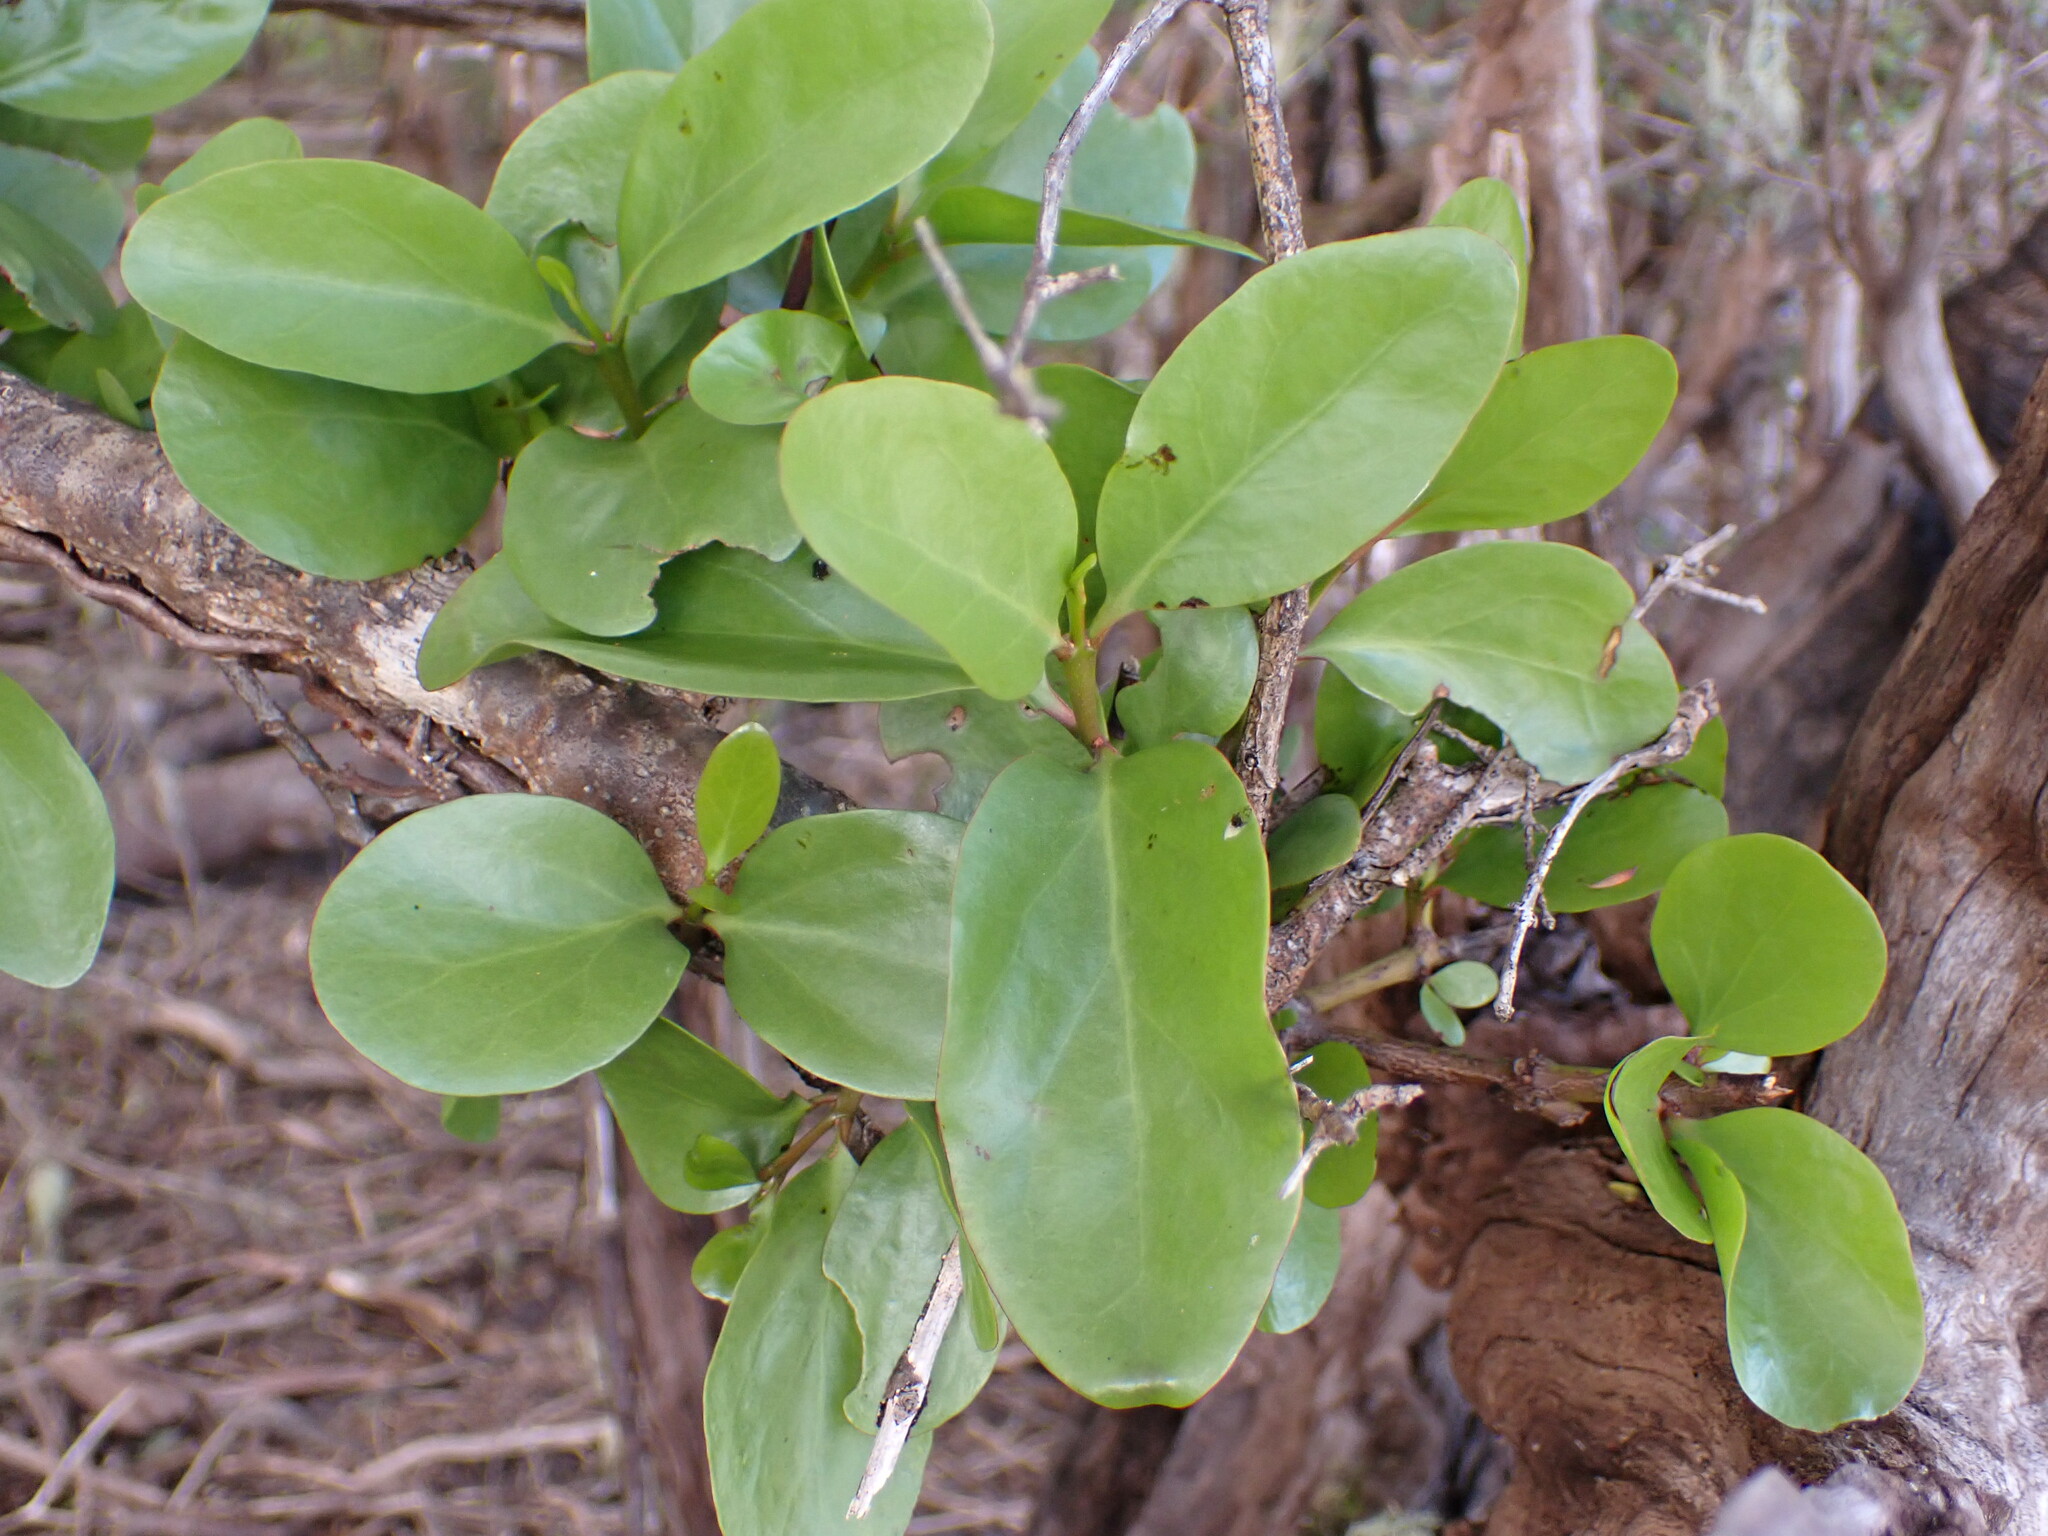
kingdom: Plantae
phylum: Tracheophyta
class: Magnoliopsida
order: Santalales
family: Loranthaceae
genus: Ileostylus
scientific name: Ileostylus micranthus
